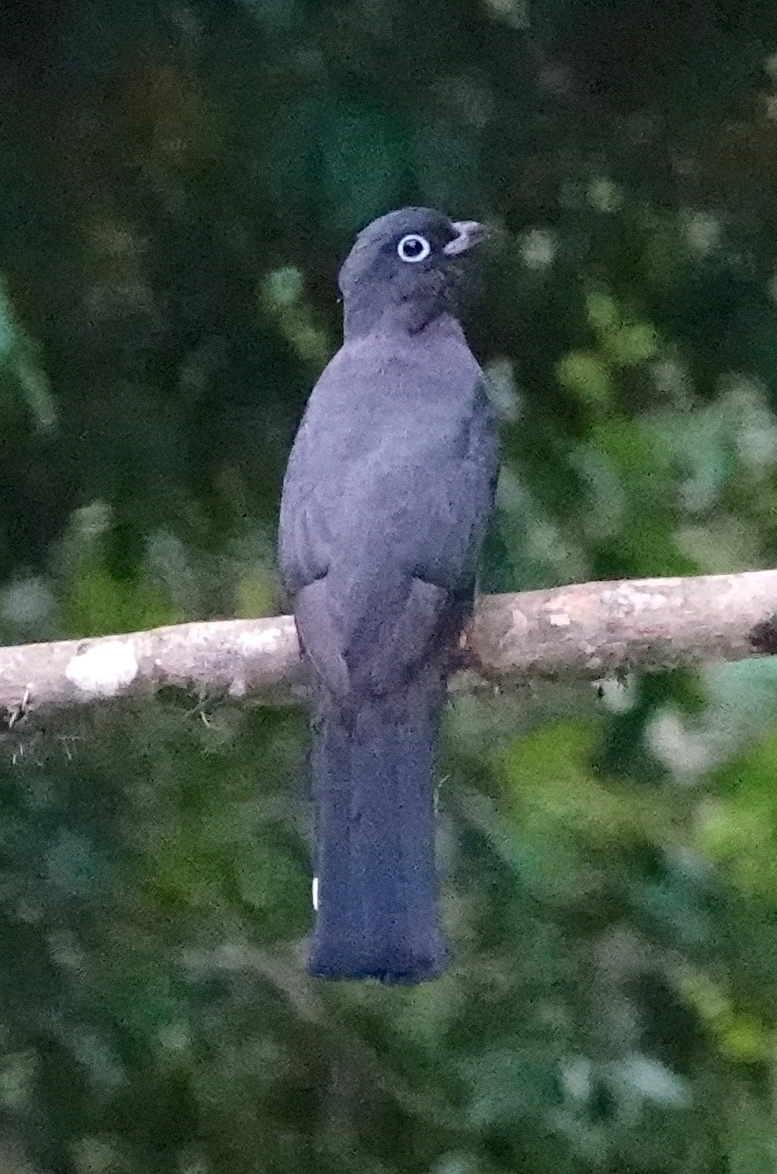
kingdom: Animalia
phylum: Chordata
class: Aves
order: Trogoniformes
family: Trogonidae
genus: Trogon
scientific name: Trogon melanocephalus
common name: Black-headed trogon
